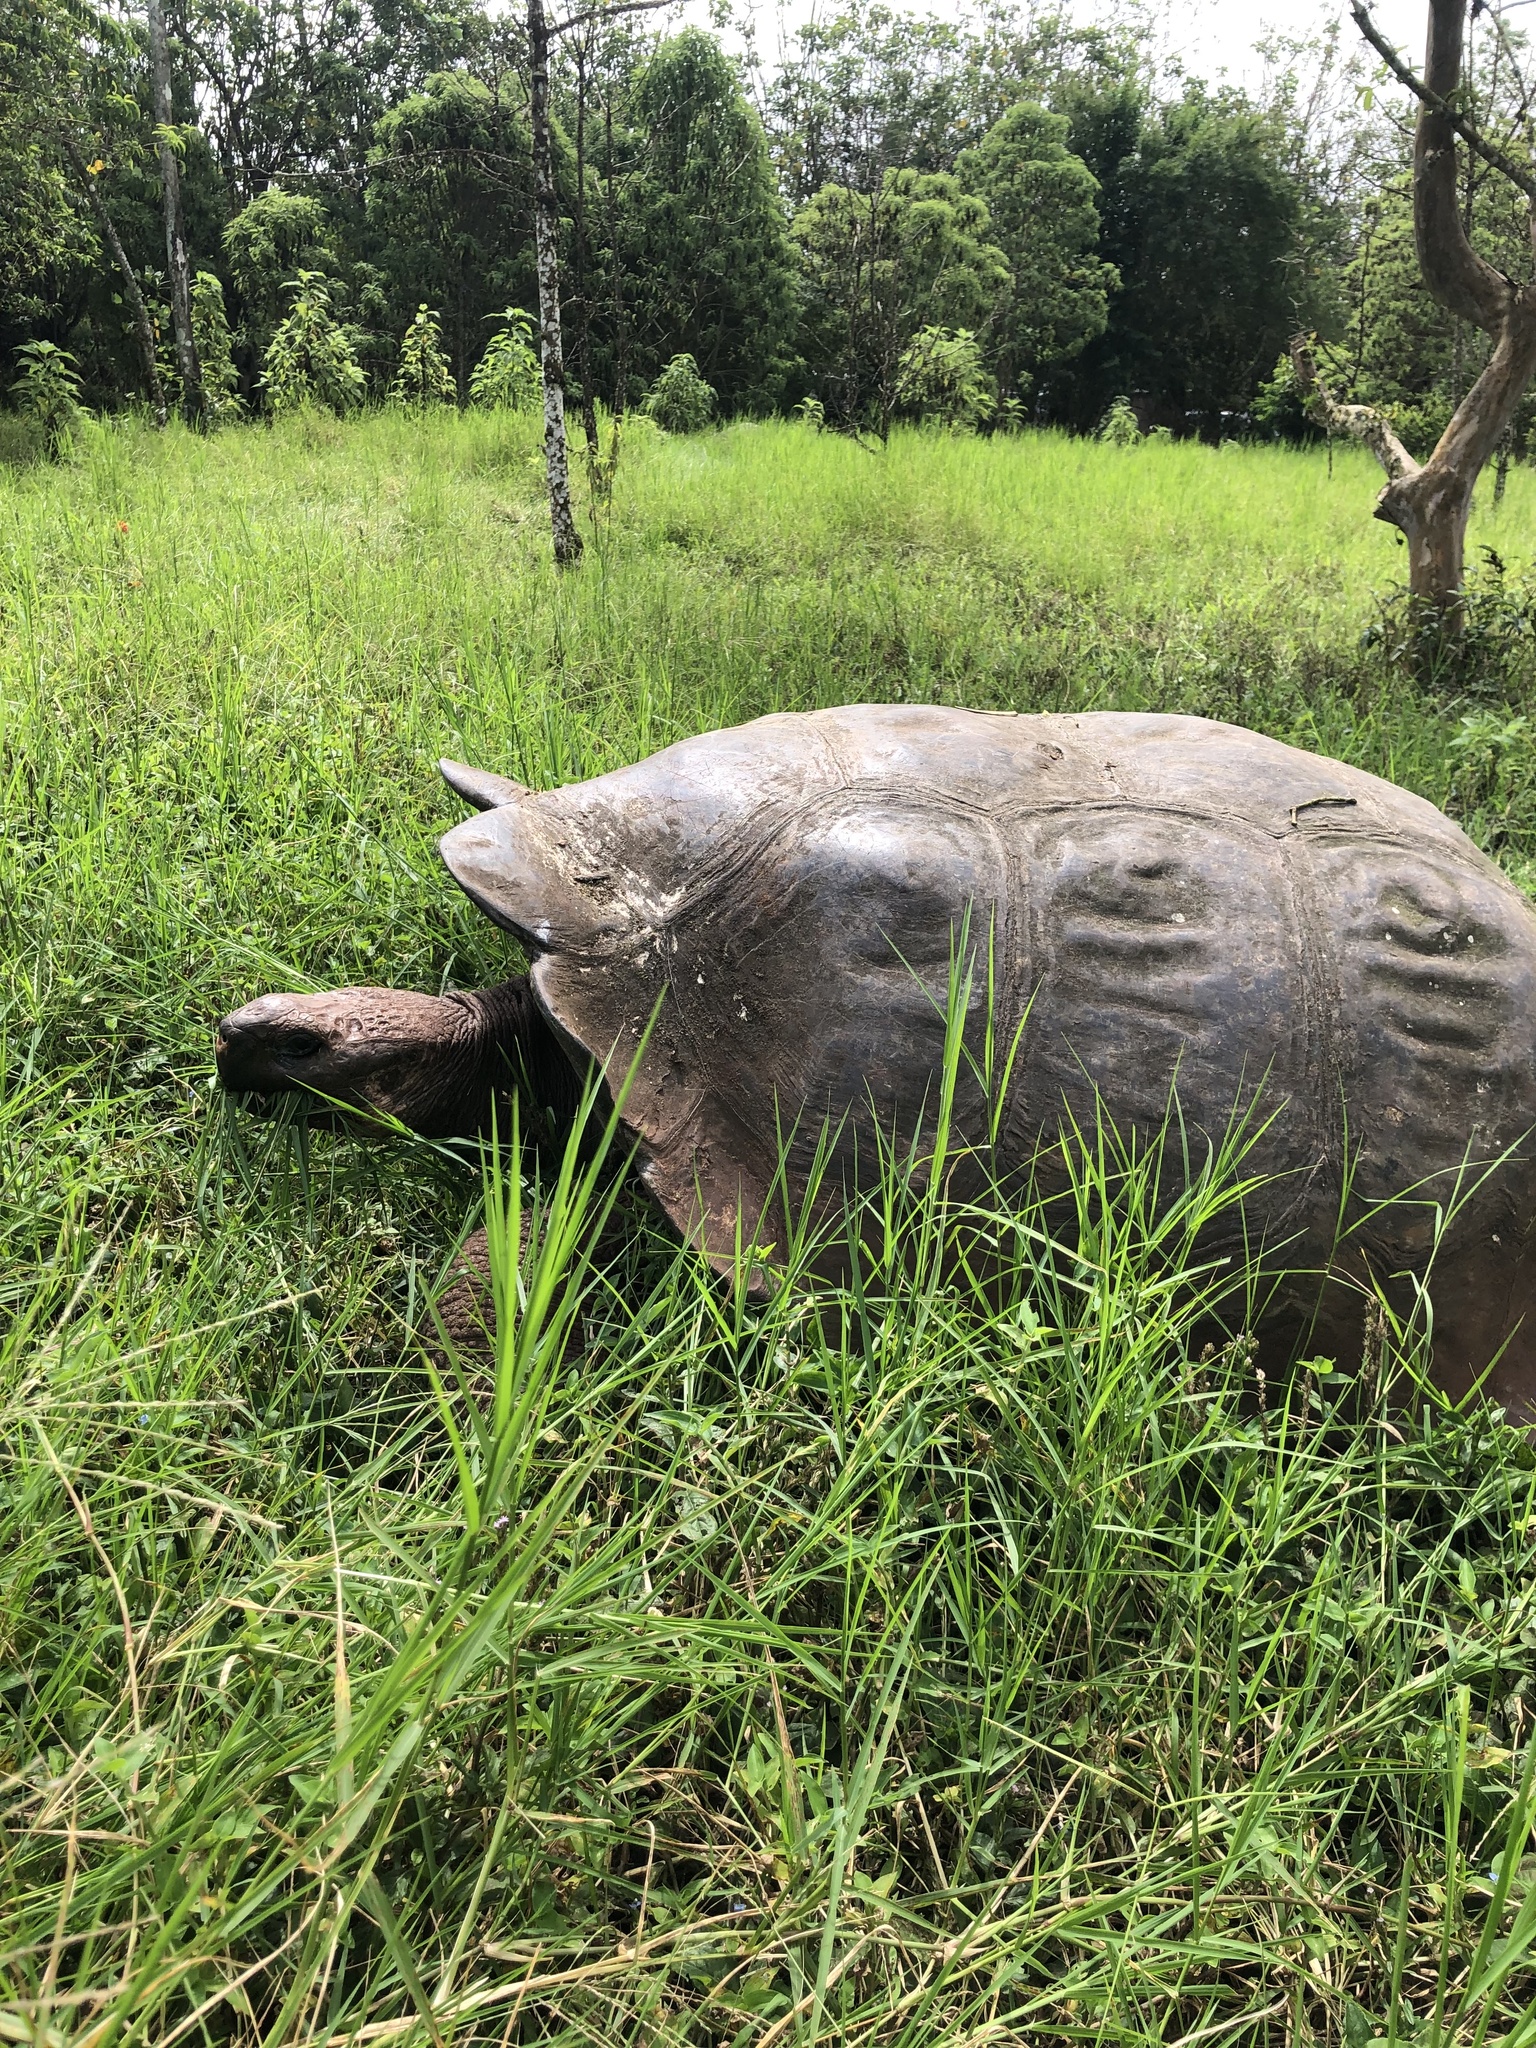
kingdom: Animalia
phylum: Chordata
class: Testudines
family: Testudinidae
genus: Chelonoidis
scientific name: Chelonoidis porteri
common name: Indefatigable island giant tortoise
